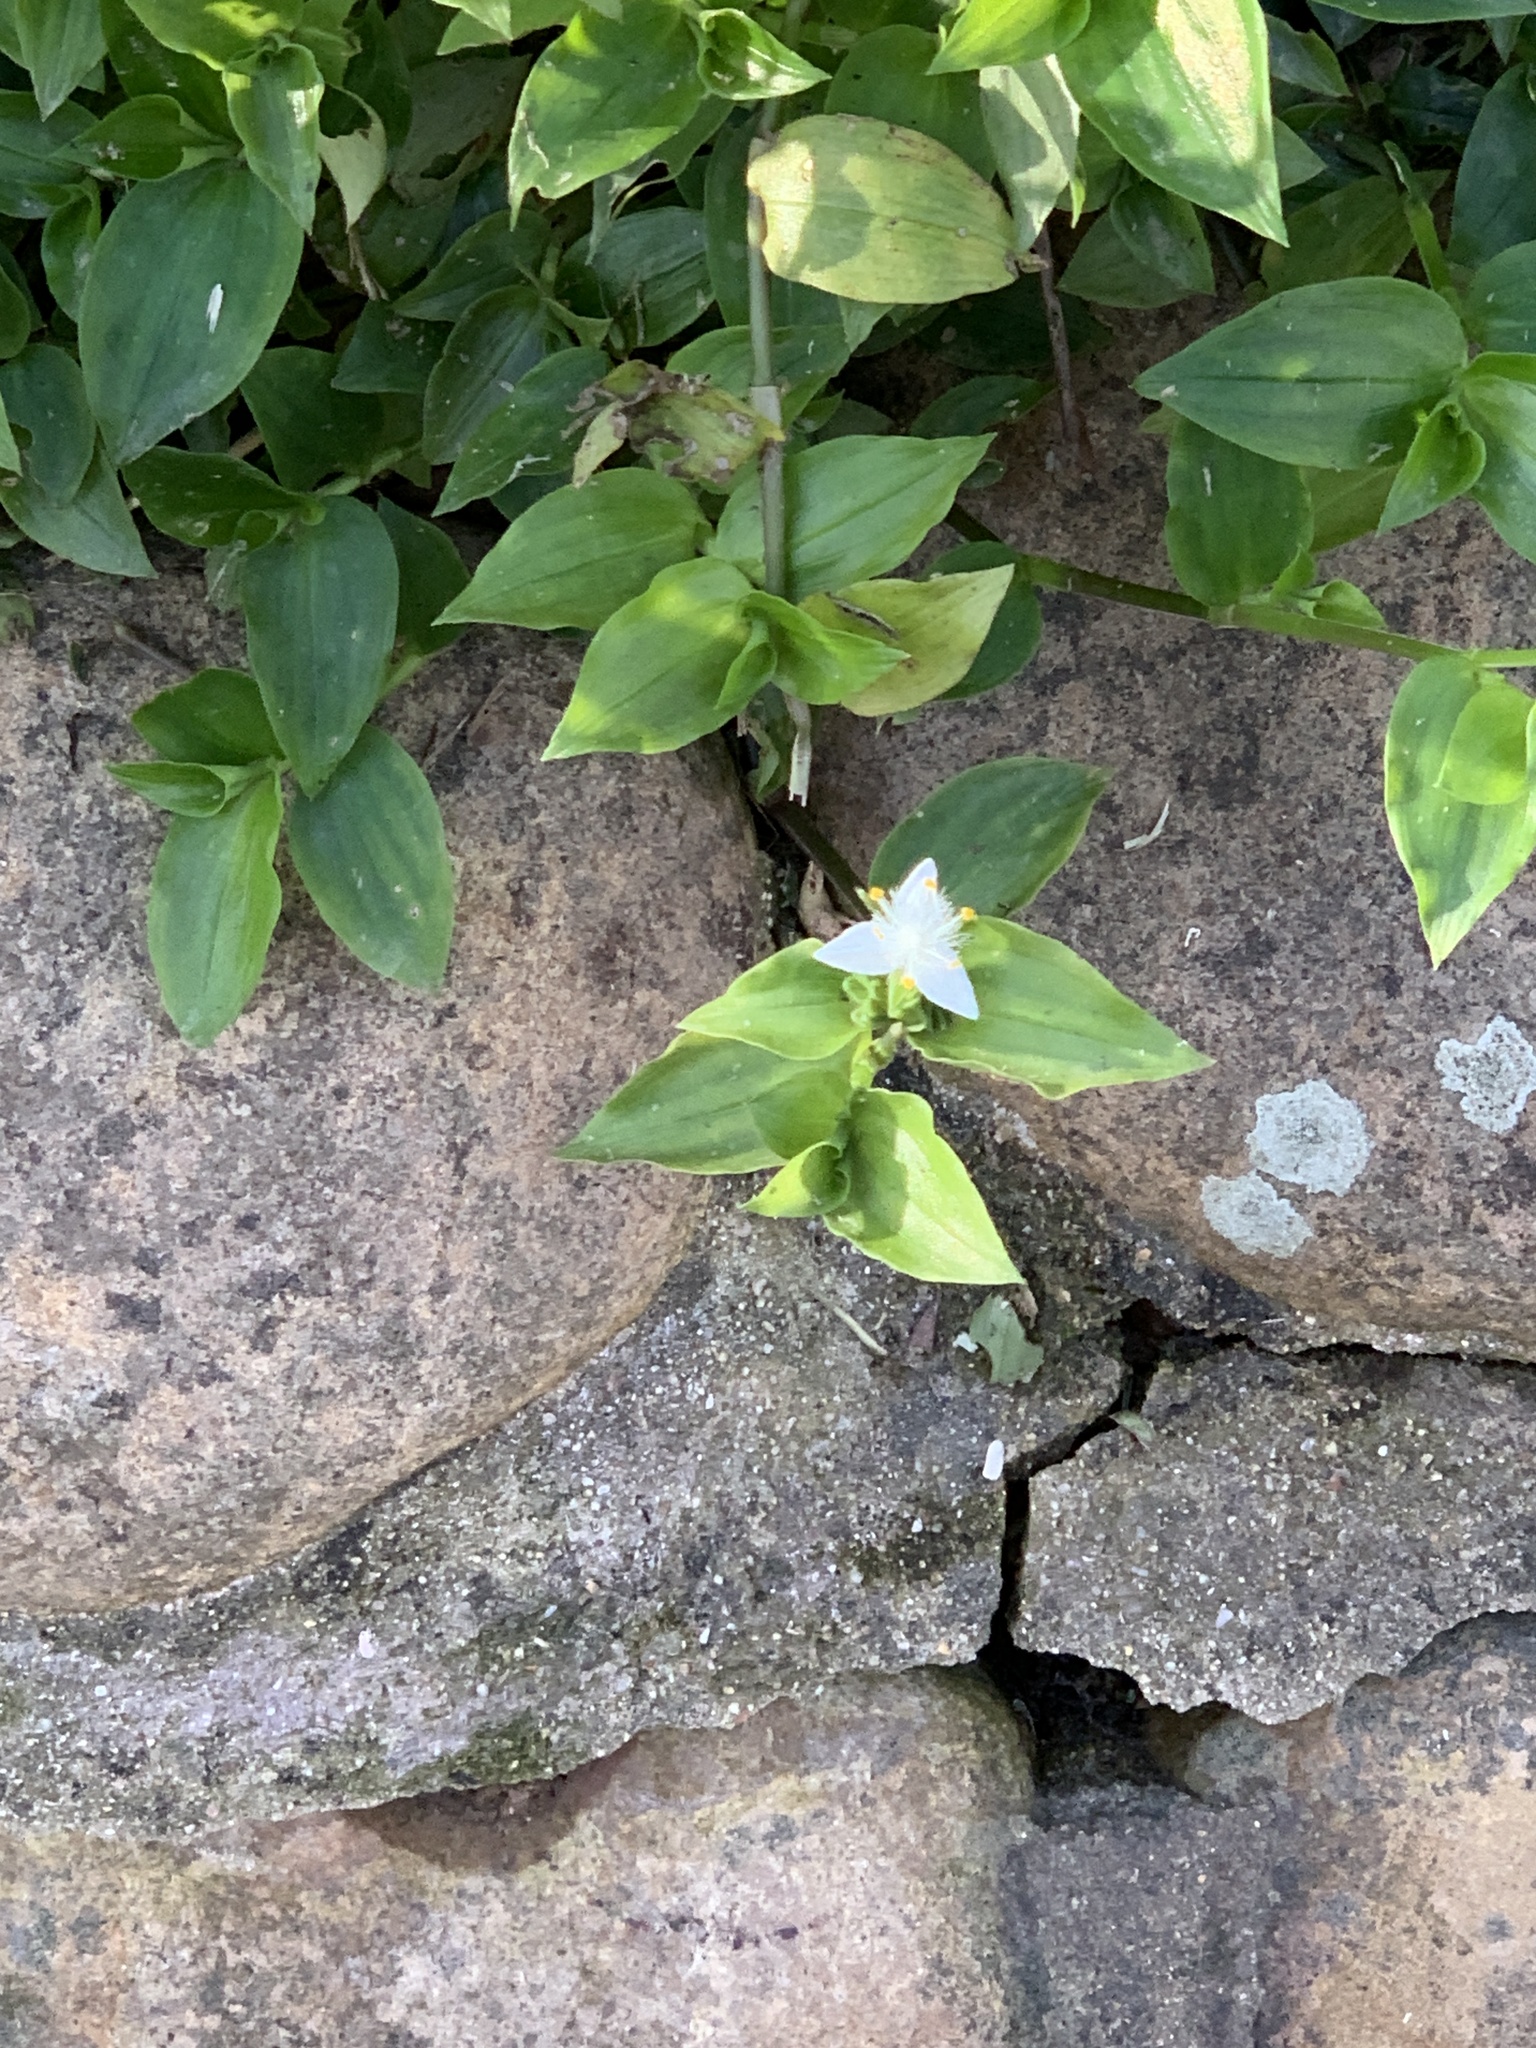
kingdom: Plantae
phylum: Tracheophyta
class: Liliopsida
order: Commelinales
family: Commelinaceae
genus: Tradescantia
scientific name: Tradescantia fluminensis
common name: Wandering-jew
